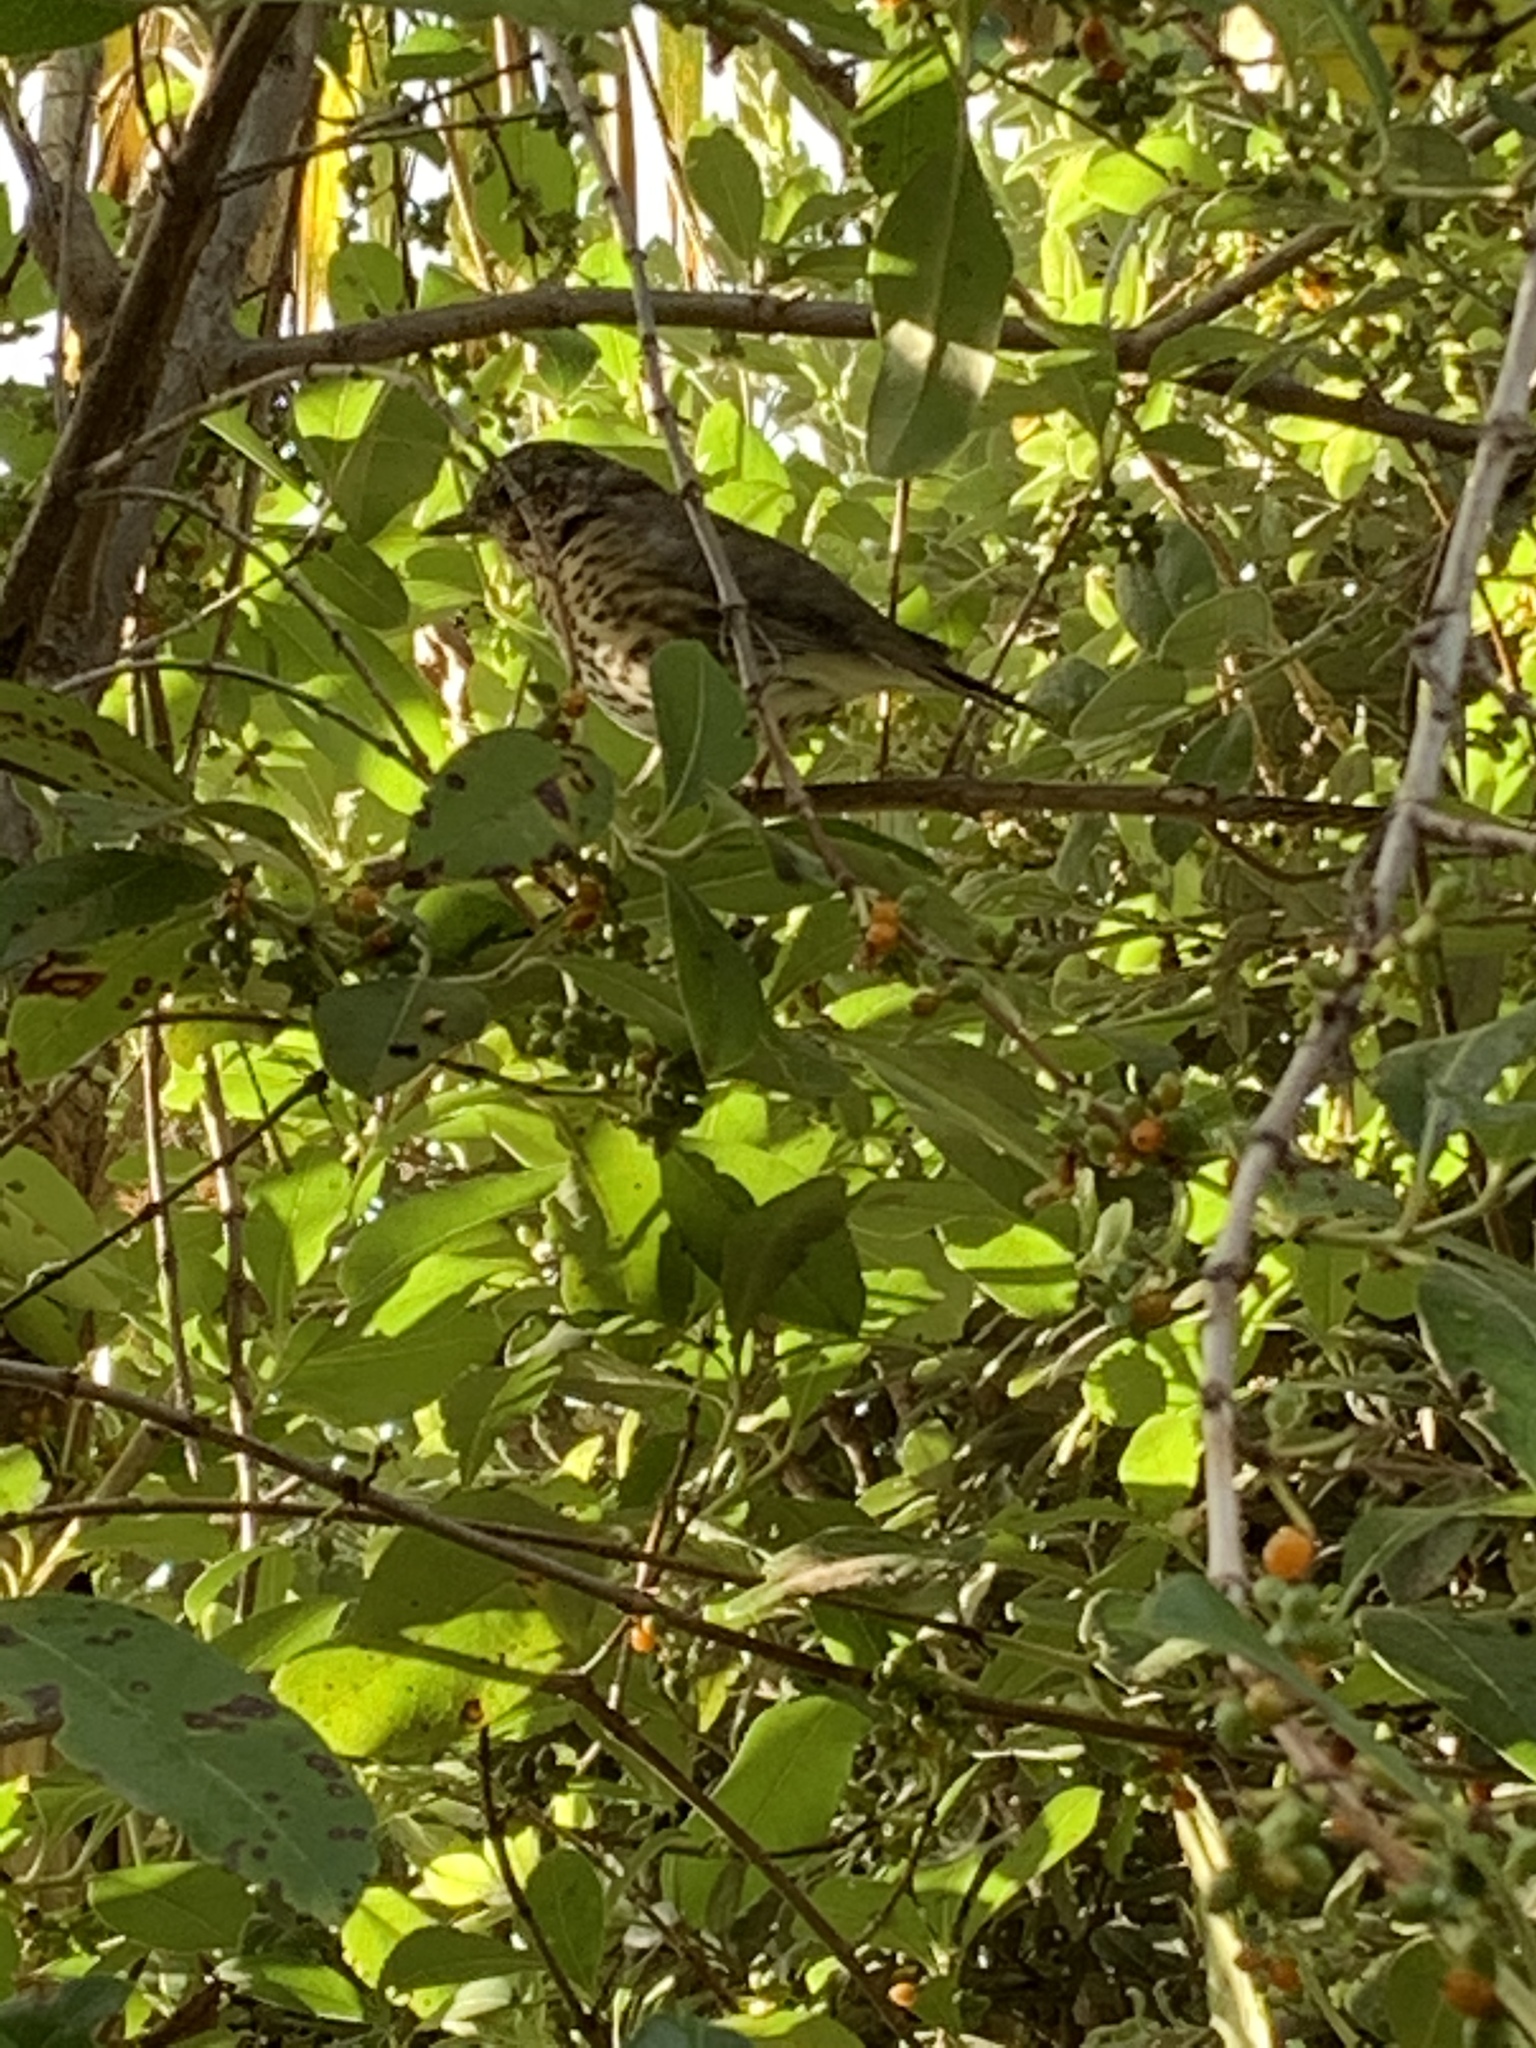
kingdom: Animalia
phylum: Chordata
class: Aves
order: Passeriformes
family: Turdidae
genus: Turdus
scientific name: Turdus philomelos
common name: Song thrush
